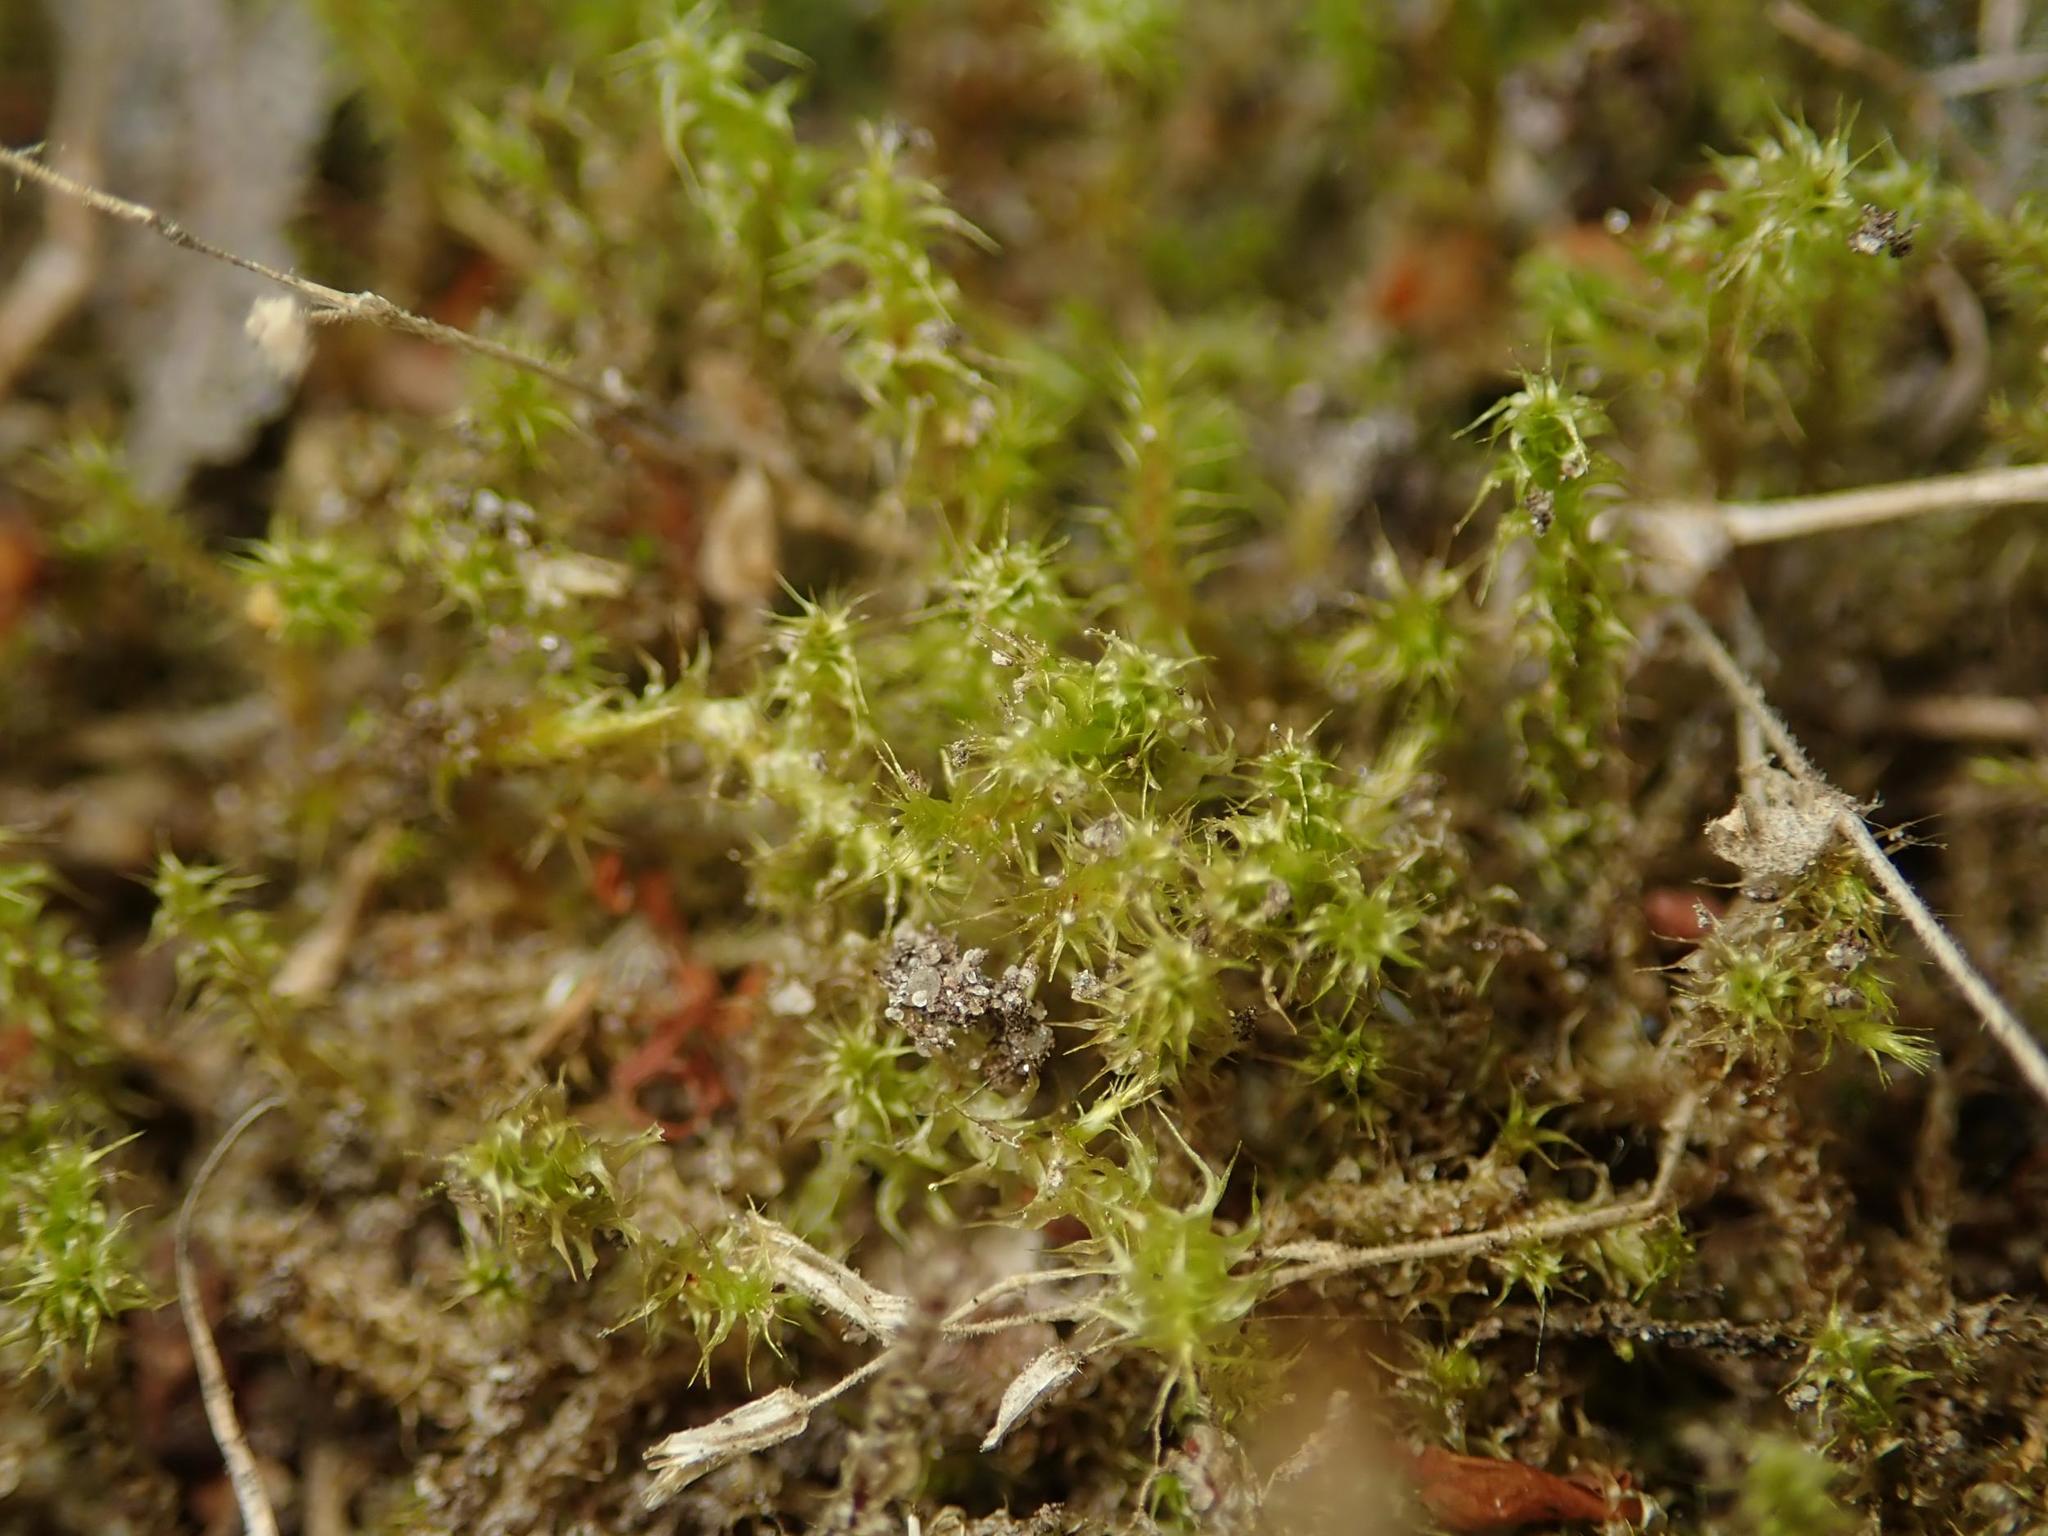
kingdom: Plantae
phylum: Bryophyta
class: Bryopsida
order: Hypnales
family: Hylocomiaceae
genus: Rhytidiadelphus
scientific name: Rhytidiadelphus squarrosus
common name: Springy turf-moss
